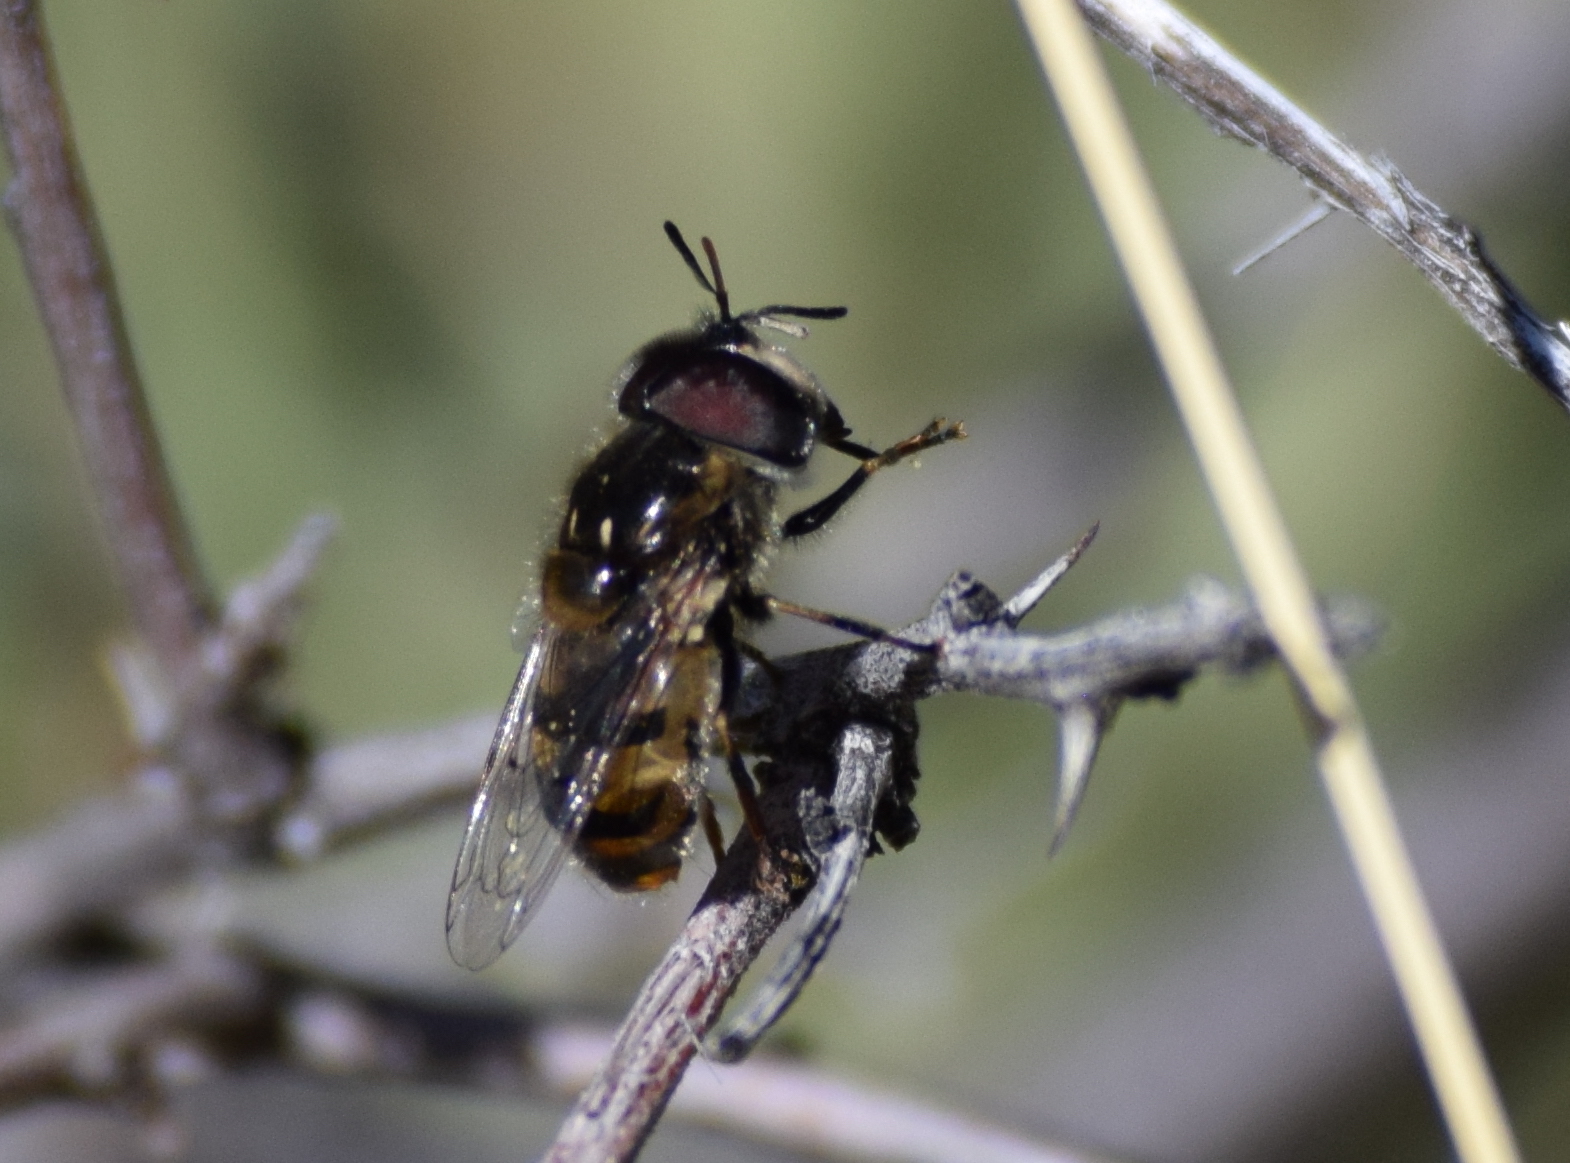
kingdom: Animalia
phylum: Arthropoda
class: Insecta
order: Diptera
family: Syrphidae
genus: Copestylum
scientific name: Copestylum marginatum
